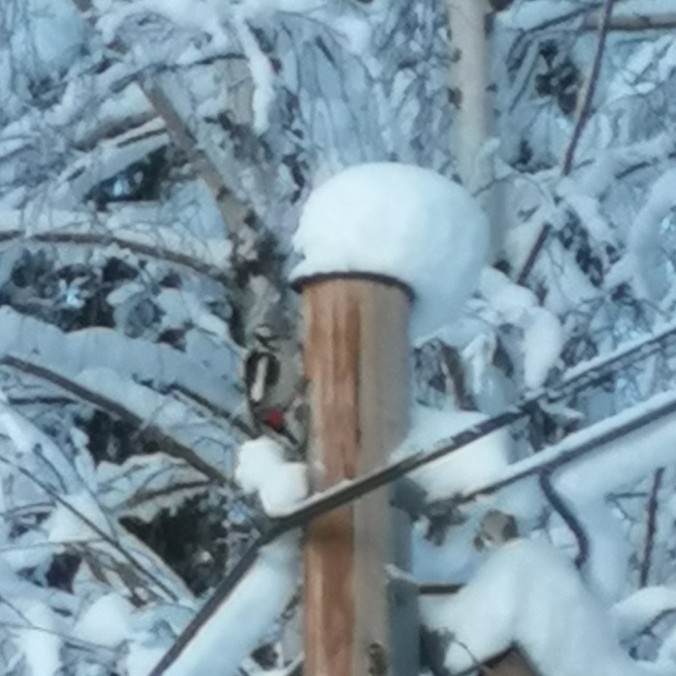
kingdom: Animalia
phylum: Chordata
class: Aves
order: Piciformes
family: Picidae
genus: Dendrocopos
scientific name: Dendrocopos major
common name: Great spotted woodpecker
